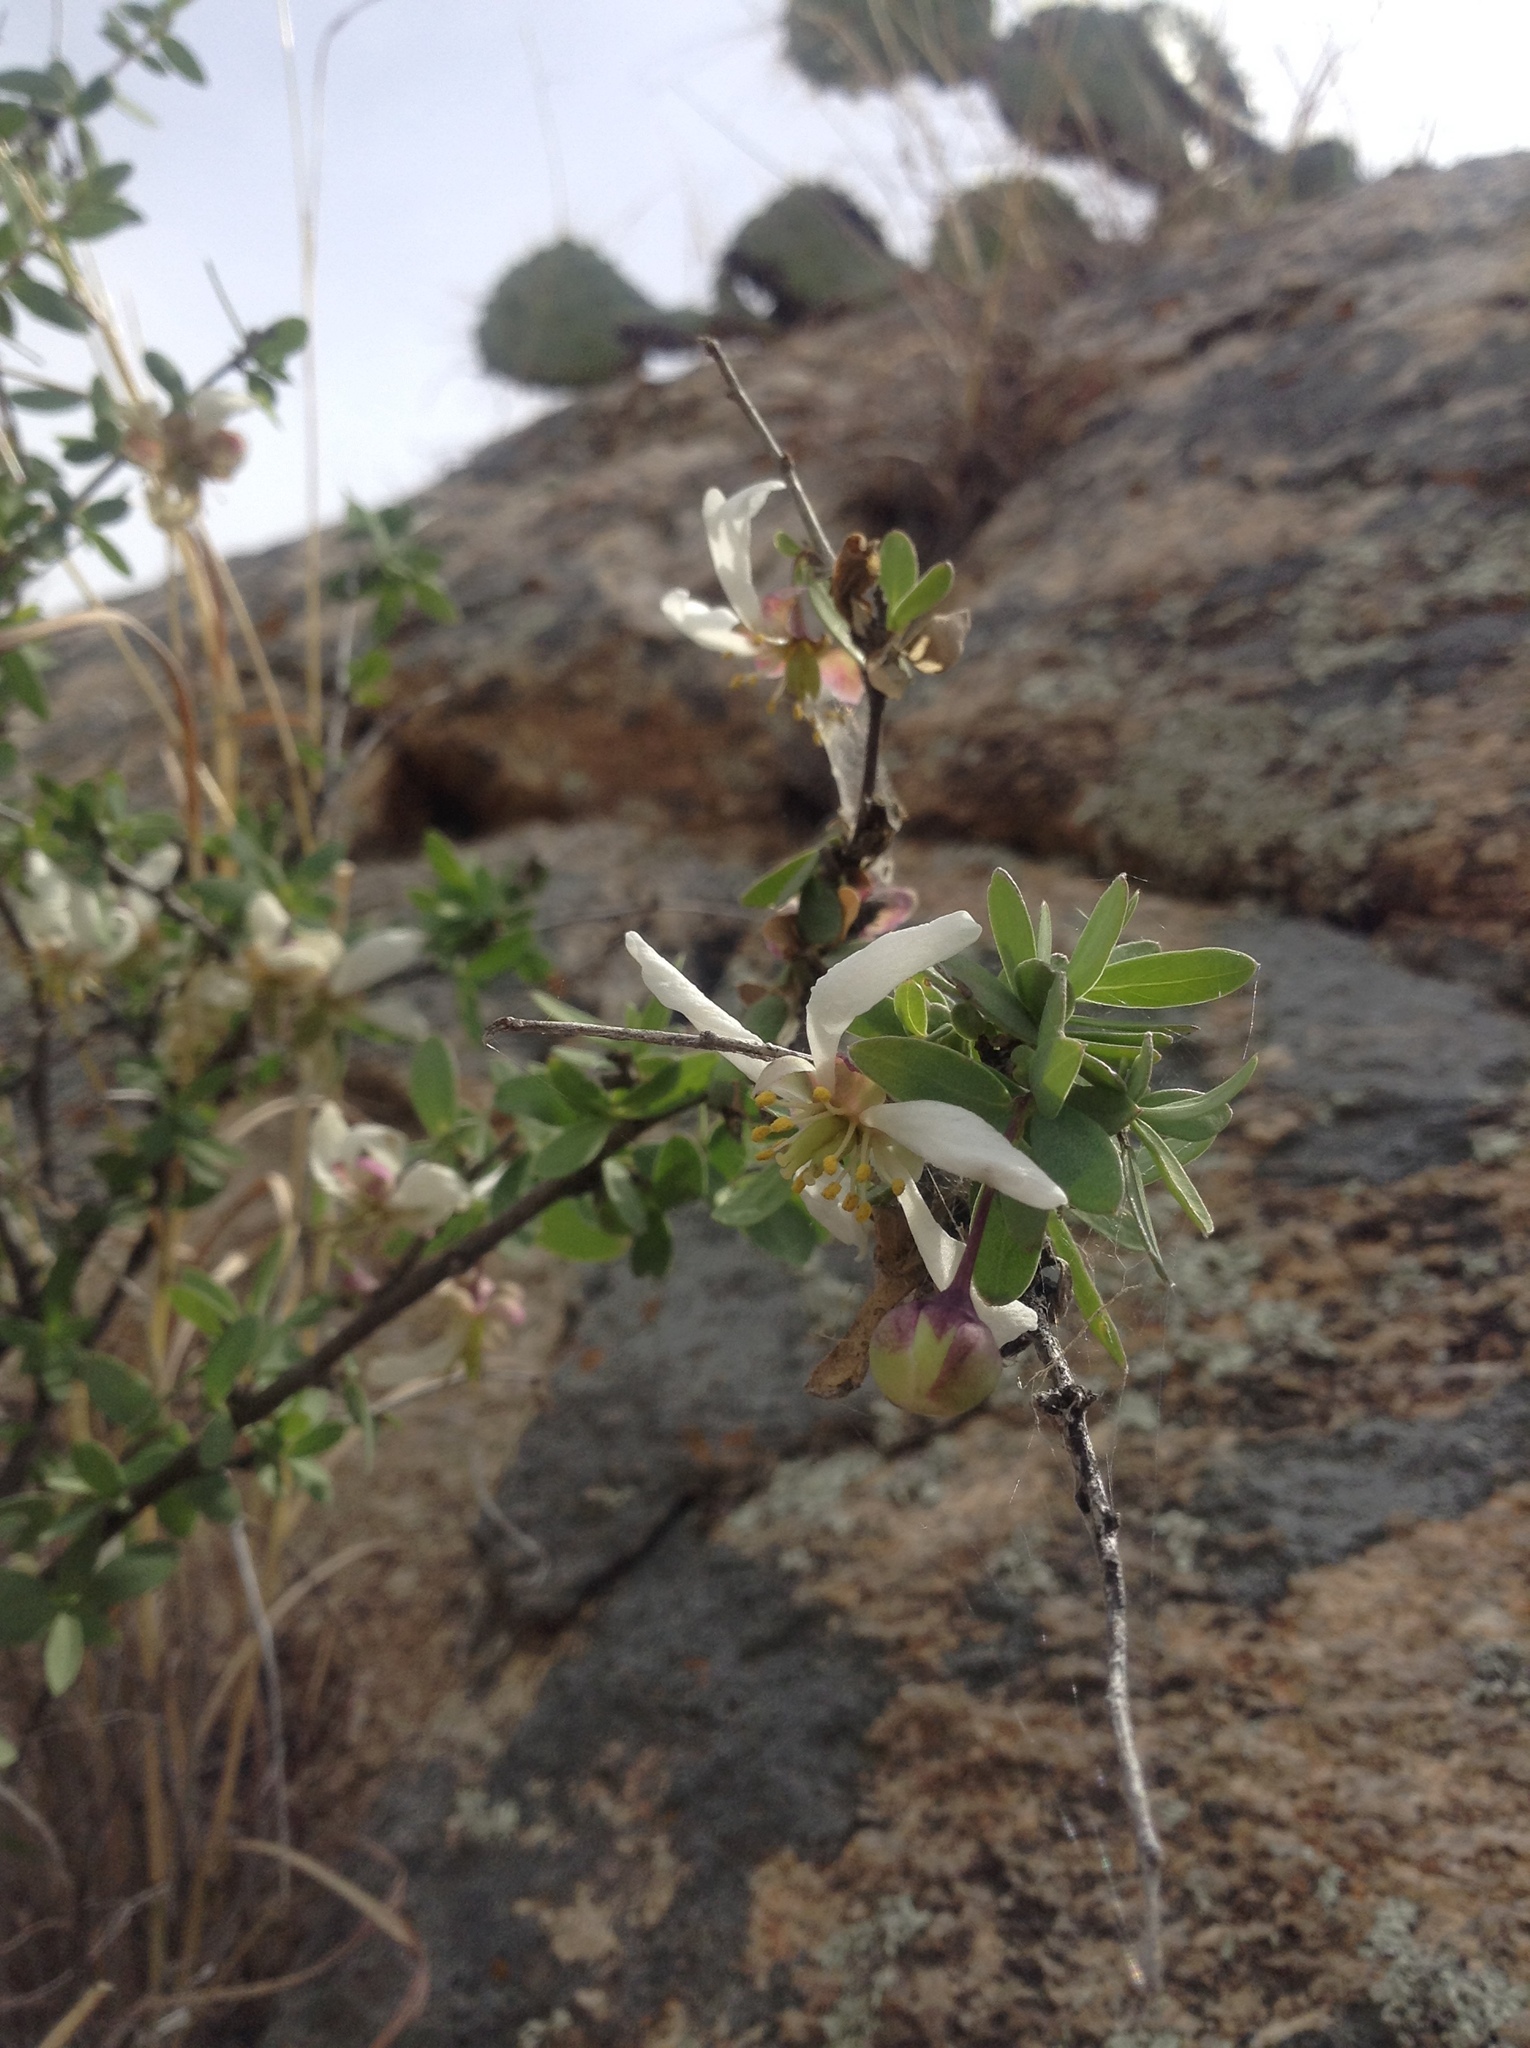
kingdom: Plantae
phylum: Tracheophyta
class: Magnoliopsida
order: Crossosomatales
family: Crossosomataceae
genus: Crossosoma
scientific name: Crossosoma bigelovii
